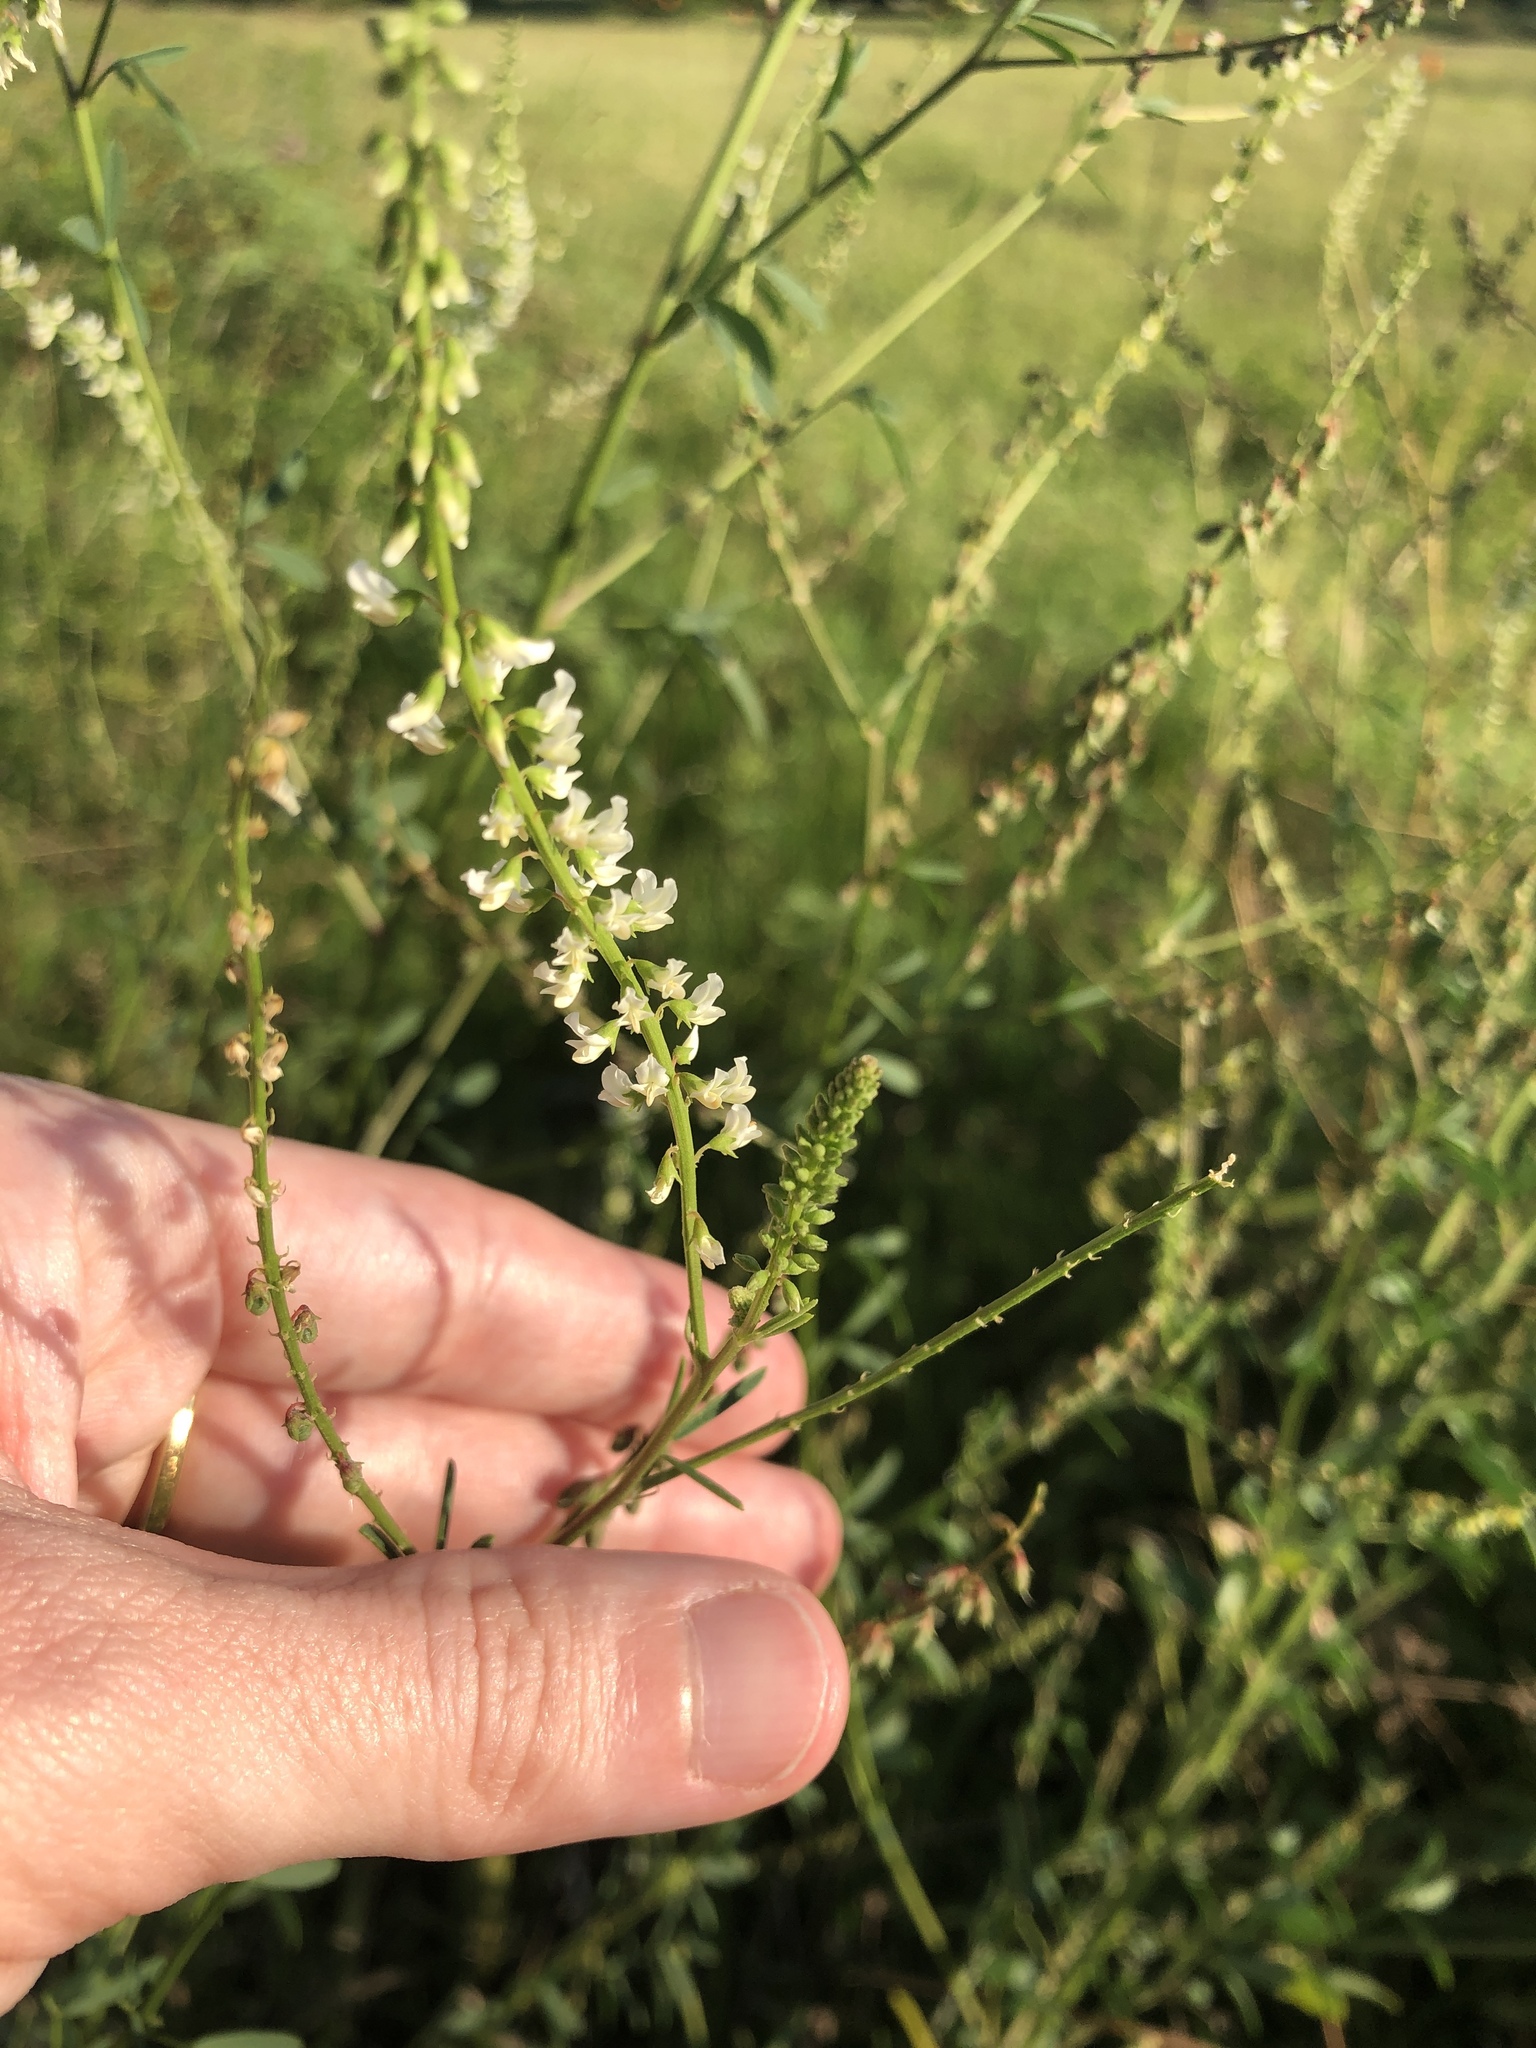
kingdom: Plantae
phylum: Tracheophyta
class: Magnoliopsida
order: Fabales
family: Fabaceae
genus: Melilotus
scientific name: Melilotus albus
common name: White melilot
